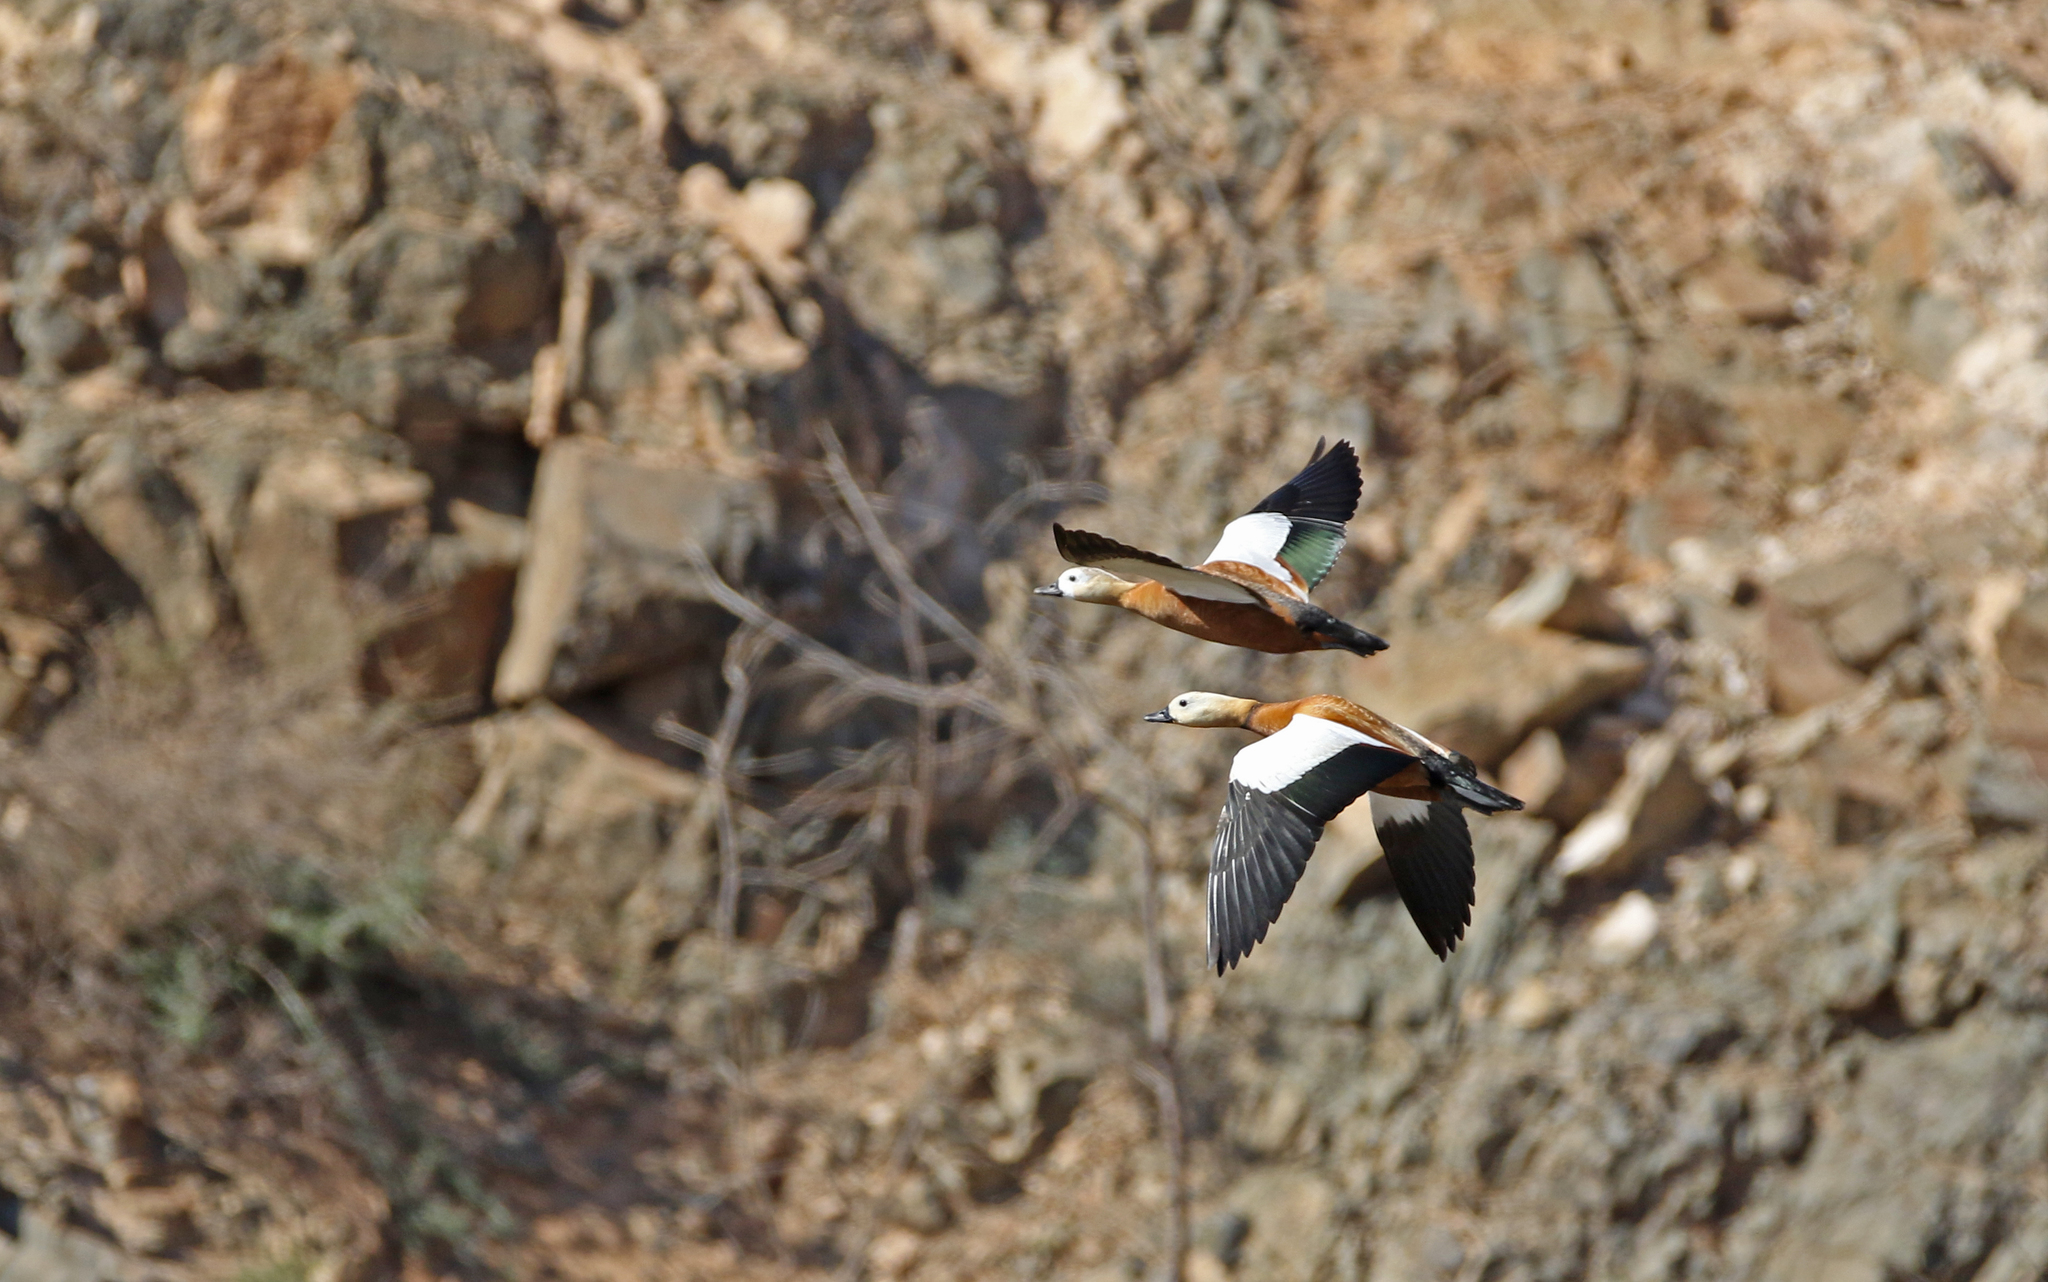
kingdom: Animalia
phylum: Chordata
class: Aves
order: Anseriformes
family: Anatidae
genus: Tadorna
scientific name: Tadorna ferruginea
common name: Ruddy shelduck
